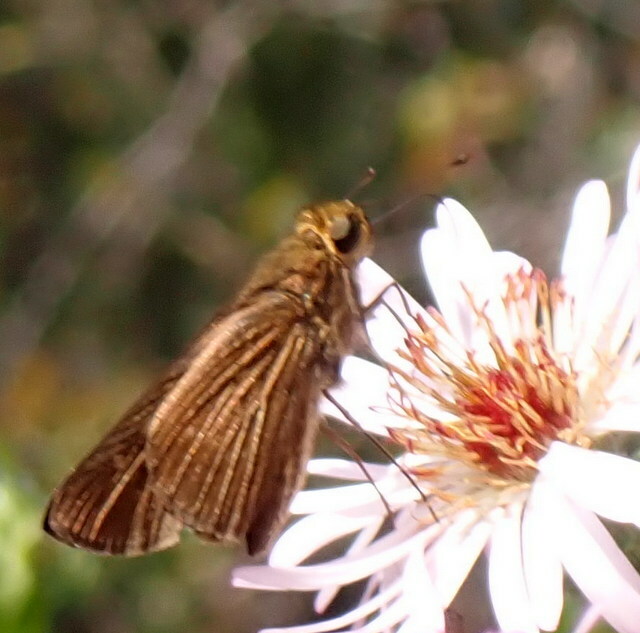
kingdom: Animalia
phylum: Arthropoda
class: Insecta
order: Lepidoptera
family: Hesperiidae
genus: Panoquina
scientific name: Panoquina ocola
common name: Ocola skipper
